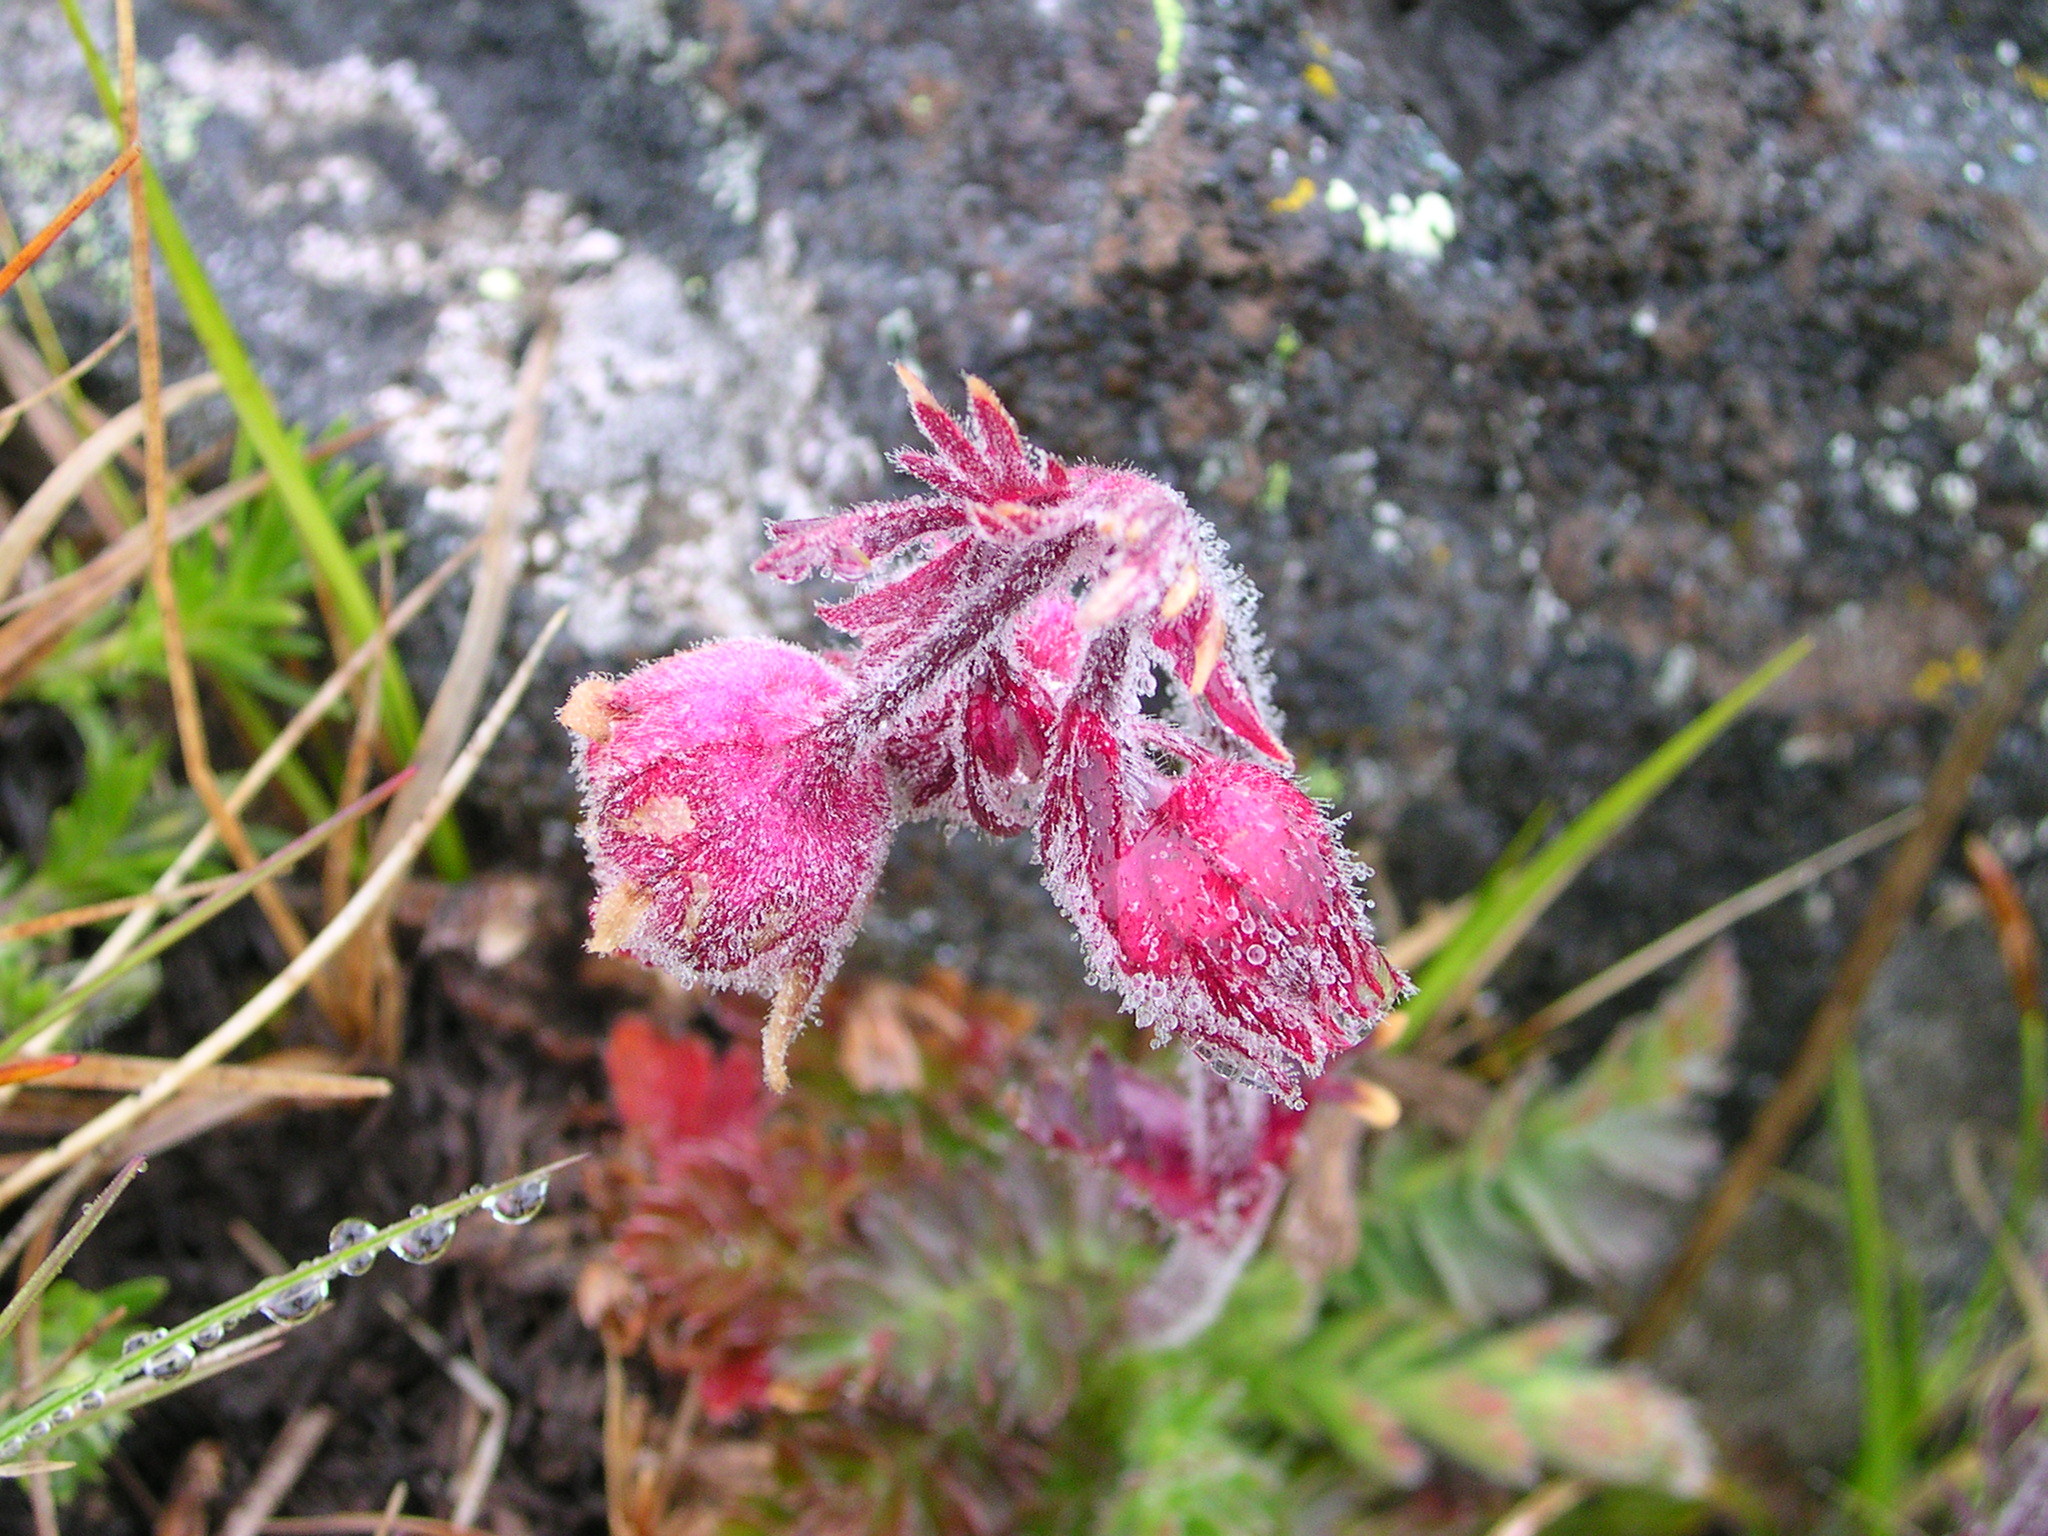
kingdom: Plantae
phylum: Tracheophyta
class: Magnoliopsida
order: Rosales
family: Rosaceae
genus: Geum
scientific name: Geum triflorum
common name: Old man's whiskers
